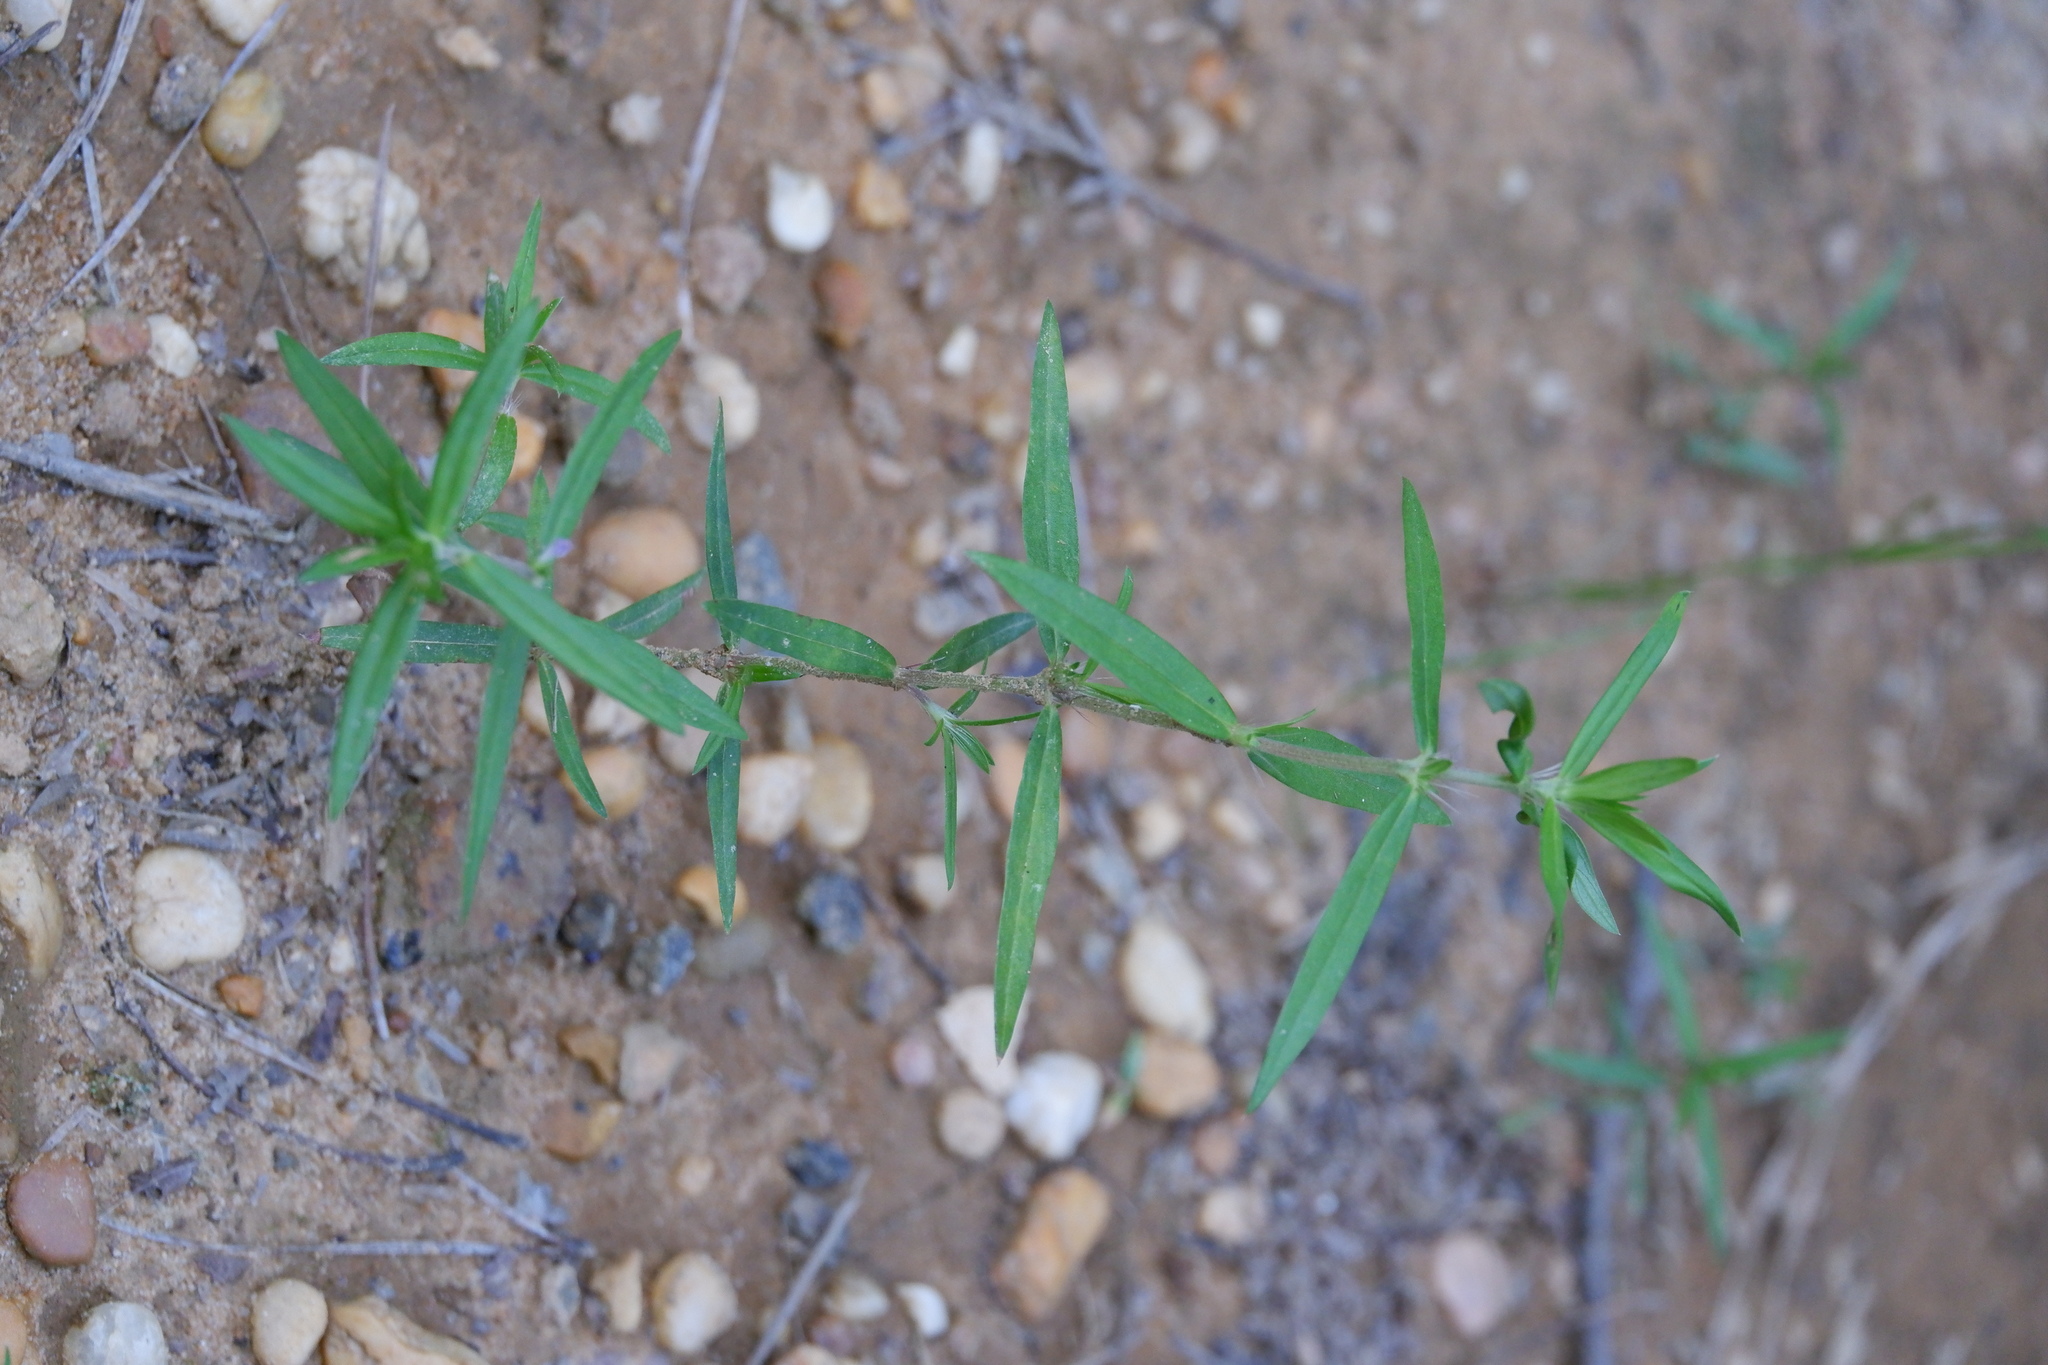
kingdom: Plantae
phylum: Tracheophyta
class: Magnoliopsida
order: Gentianales
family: Rubiaceae
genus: Hexasepalum
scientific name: Hexasepalum teres
